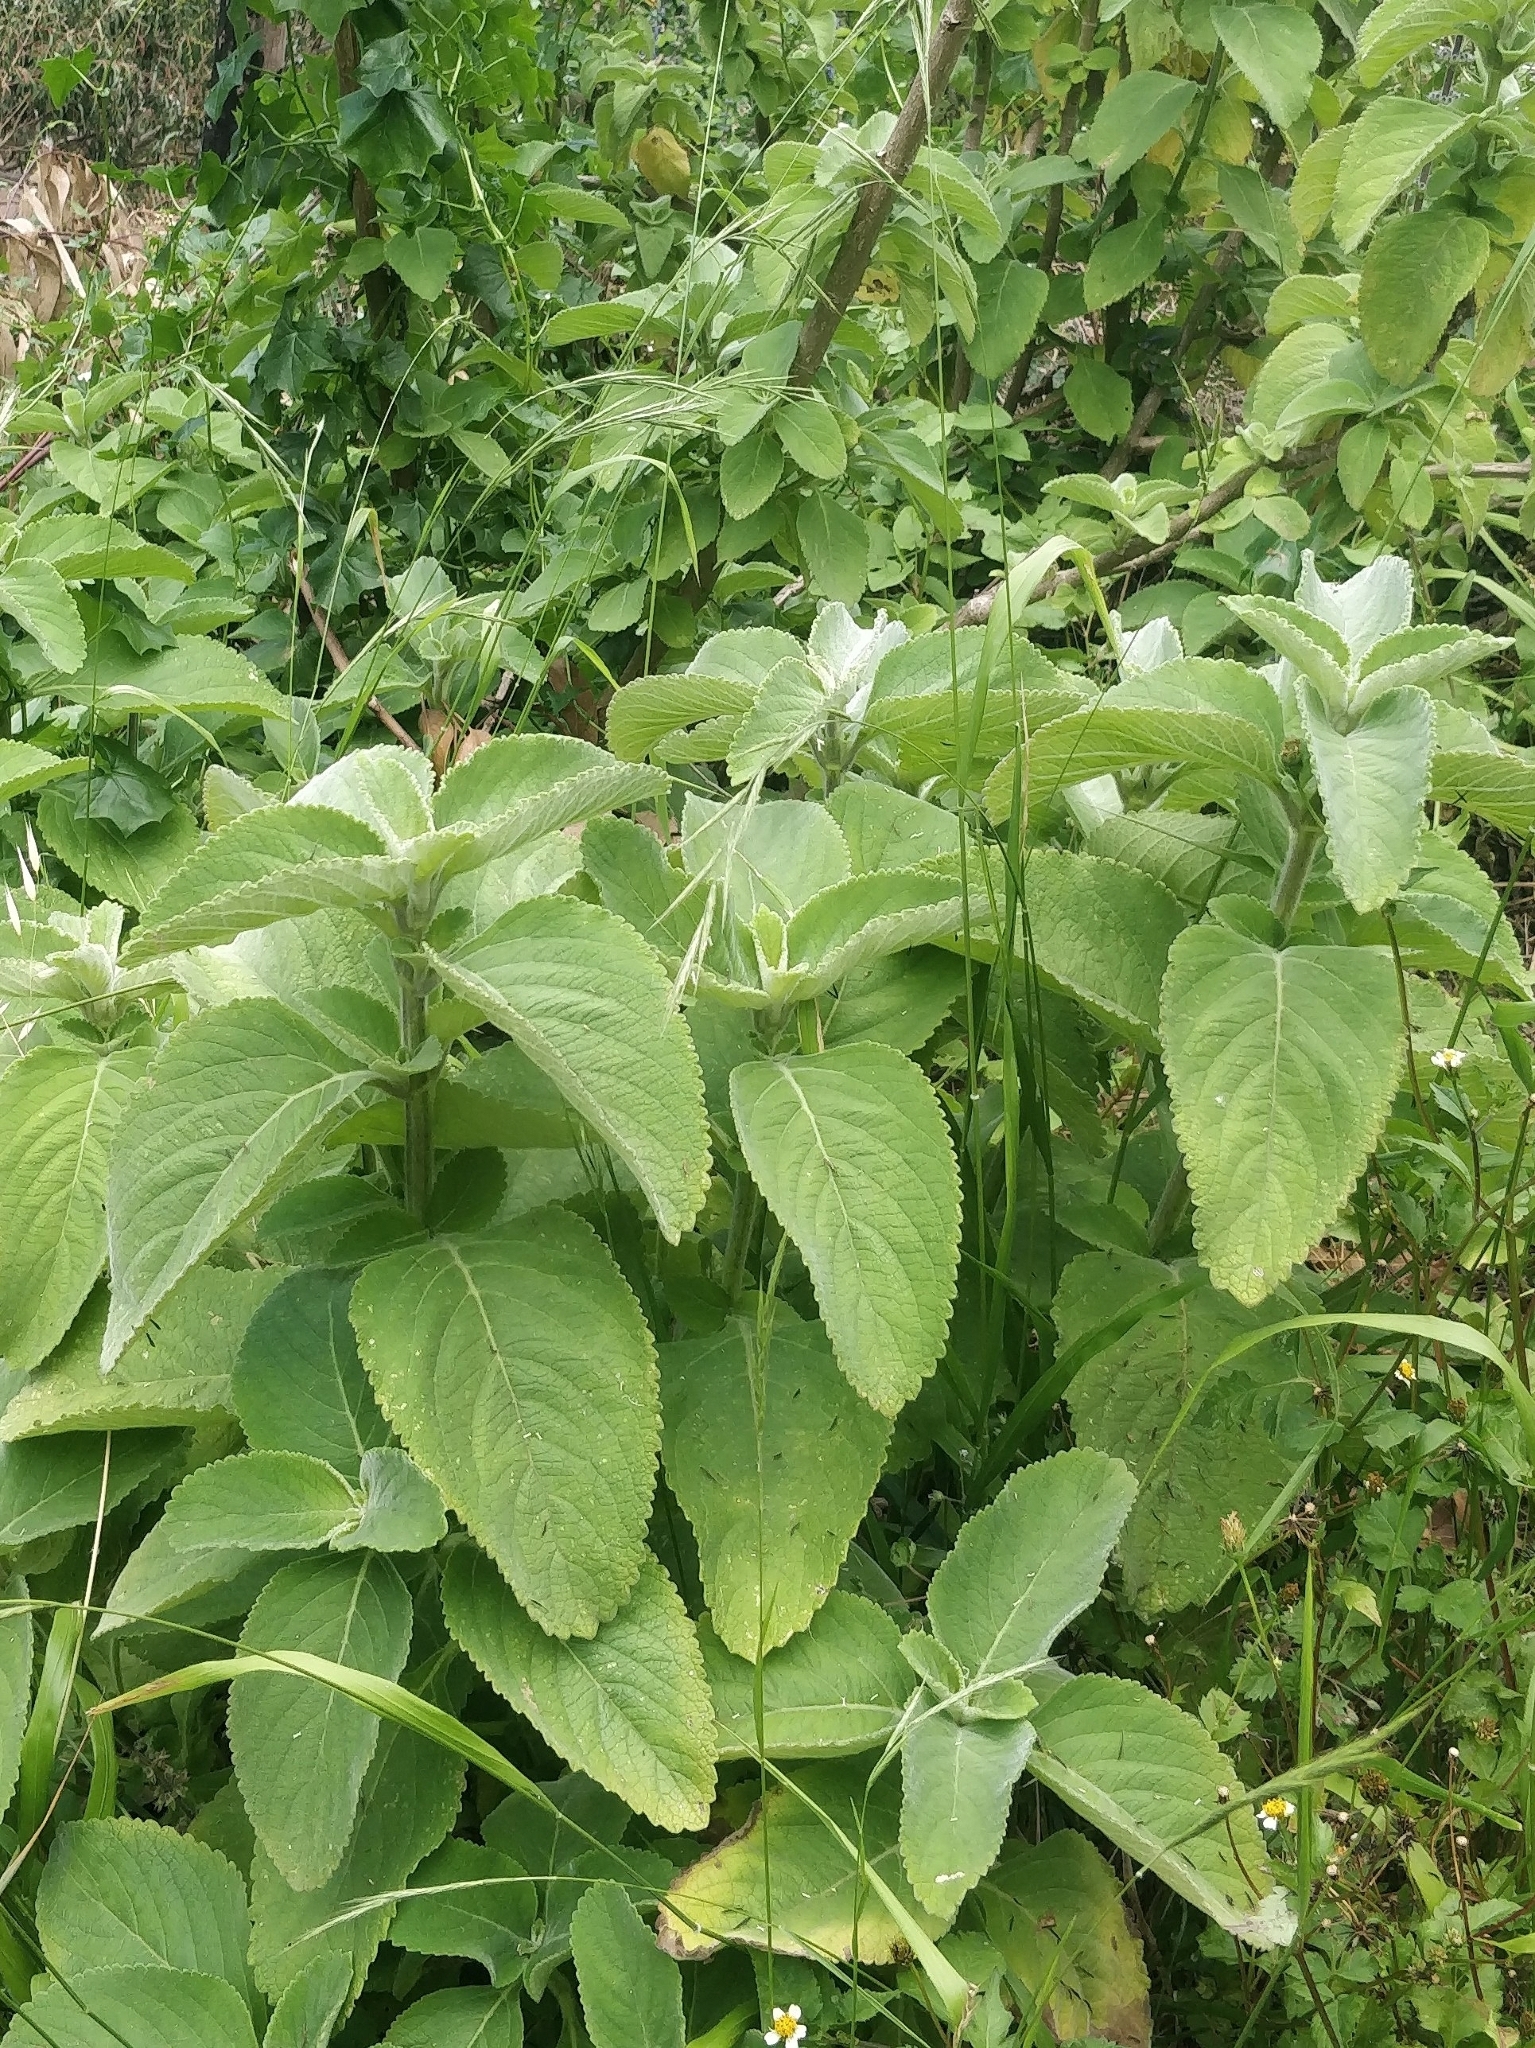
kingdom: Plantae
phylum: Tracheophyta
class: Magnoliopsida
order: Lamiales
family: Lamiaceae
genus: Coleus
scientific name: Coleus barbatus
